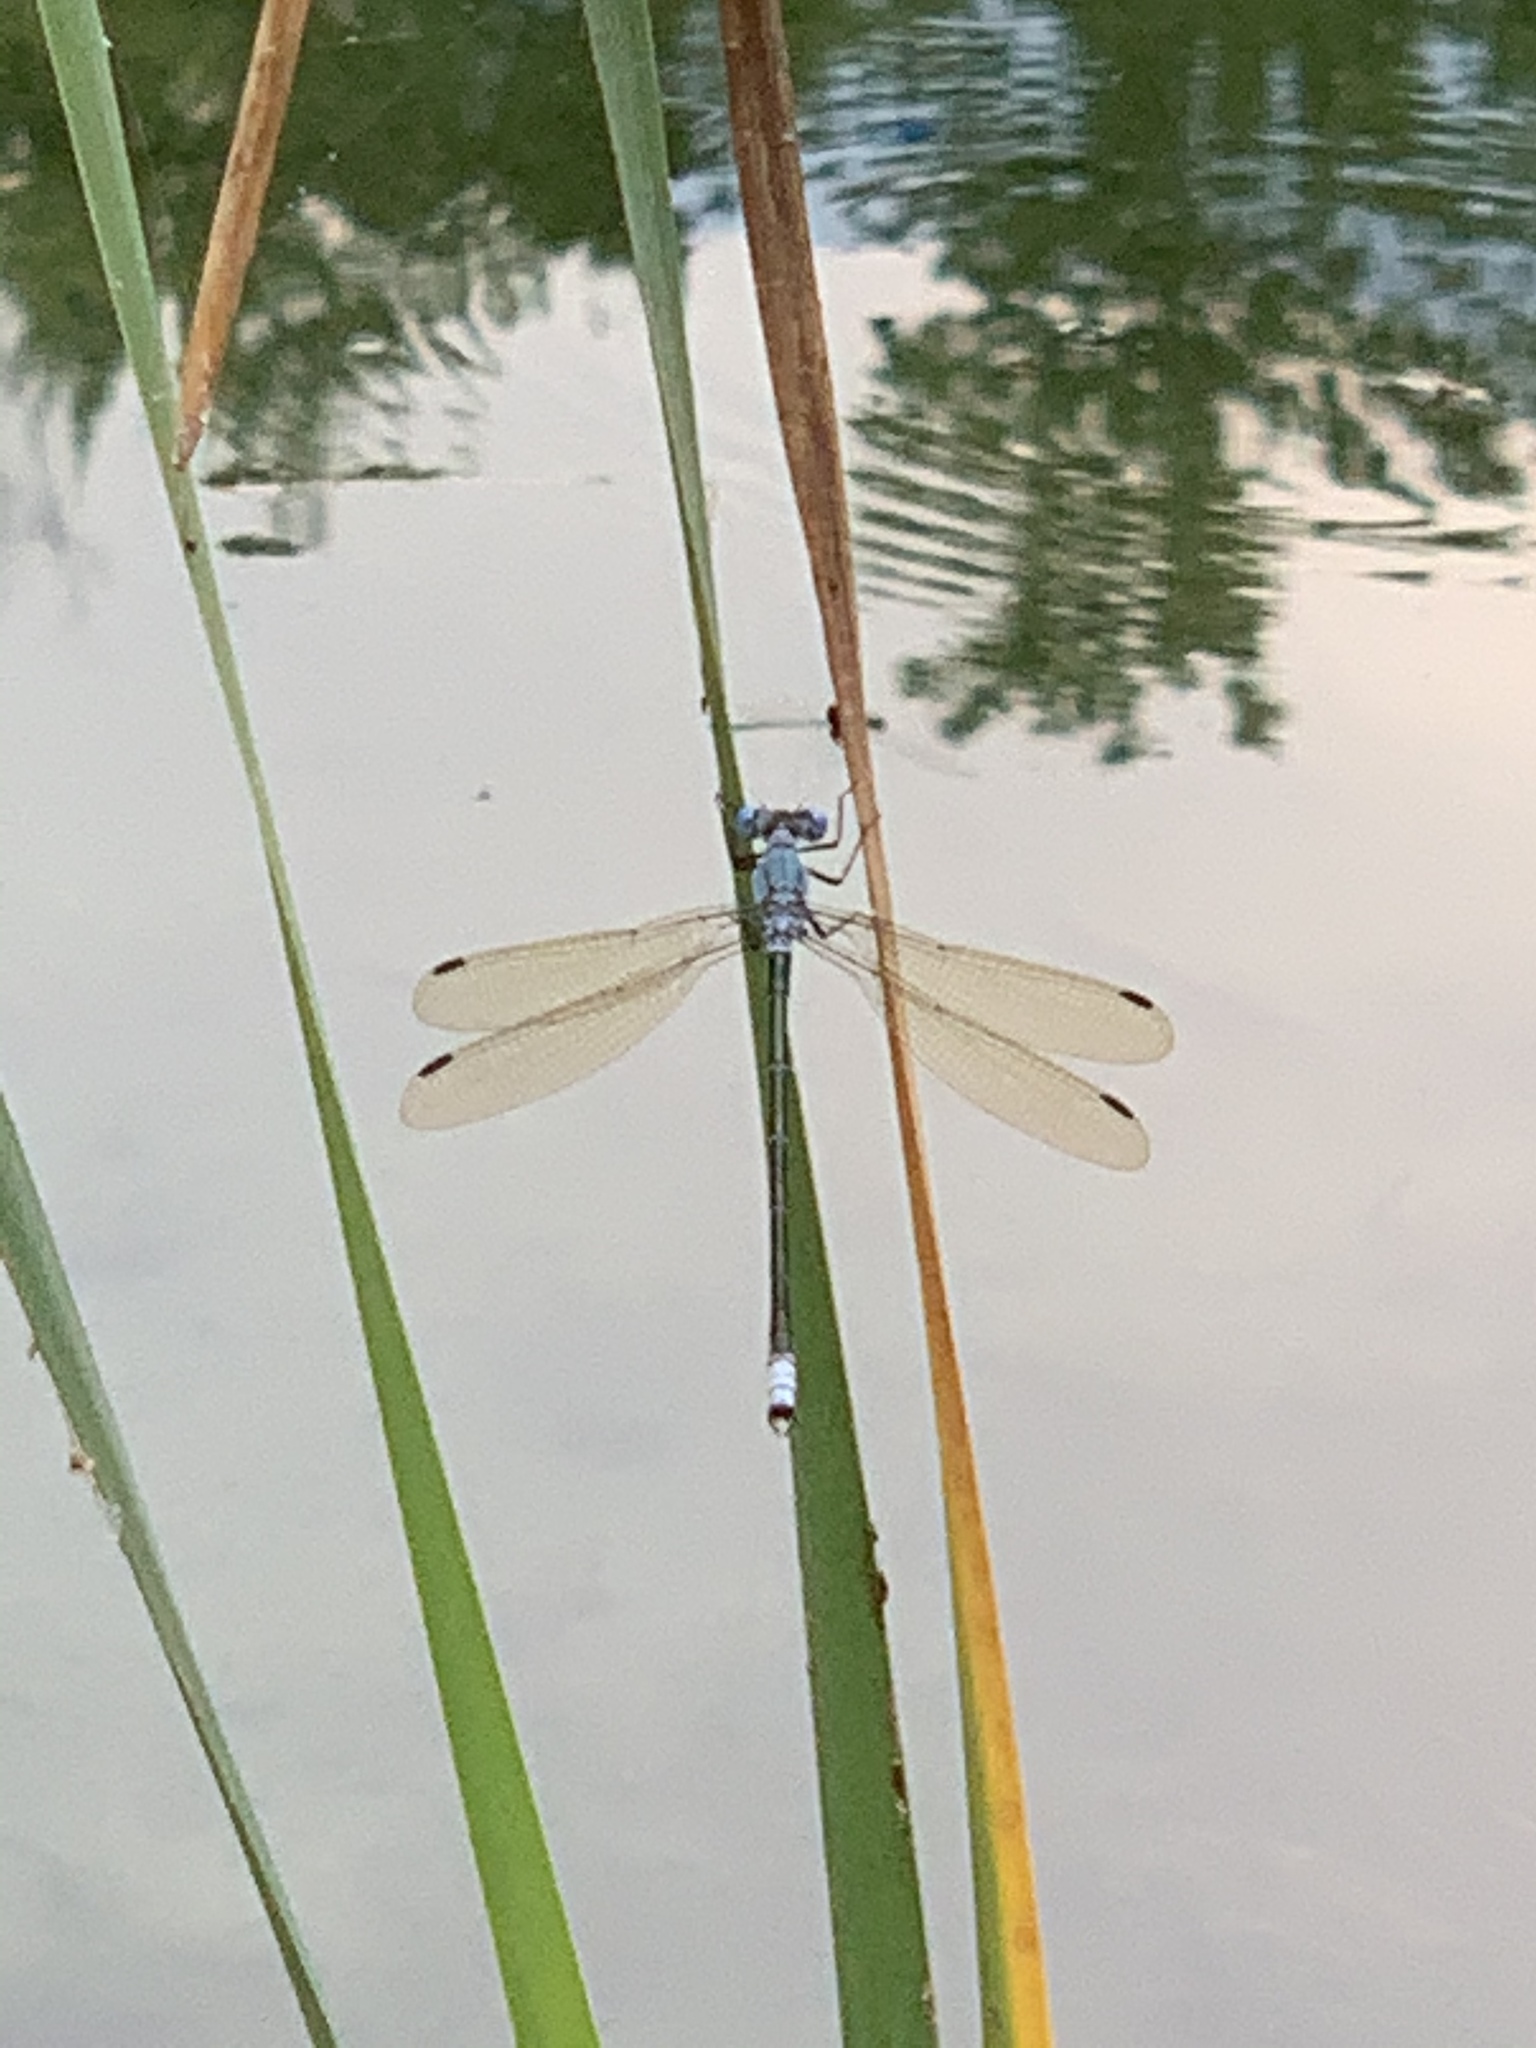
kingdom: Animalia
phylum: Arthropoda
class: Insecta
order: Odonata
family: Lestidae
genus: Lestes
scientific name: Lestes eurinus
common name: Amber-winged spreadwing
